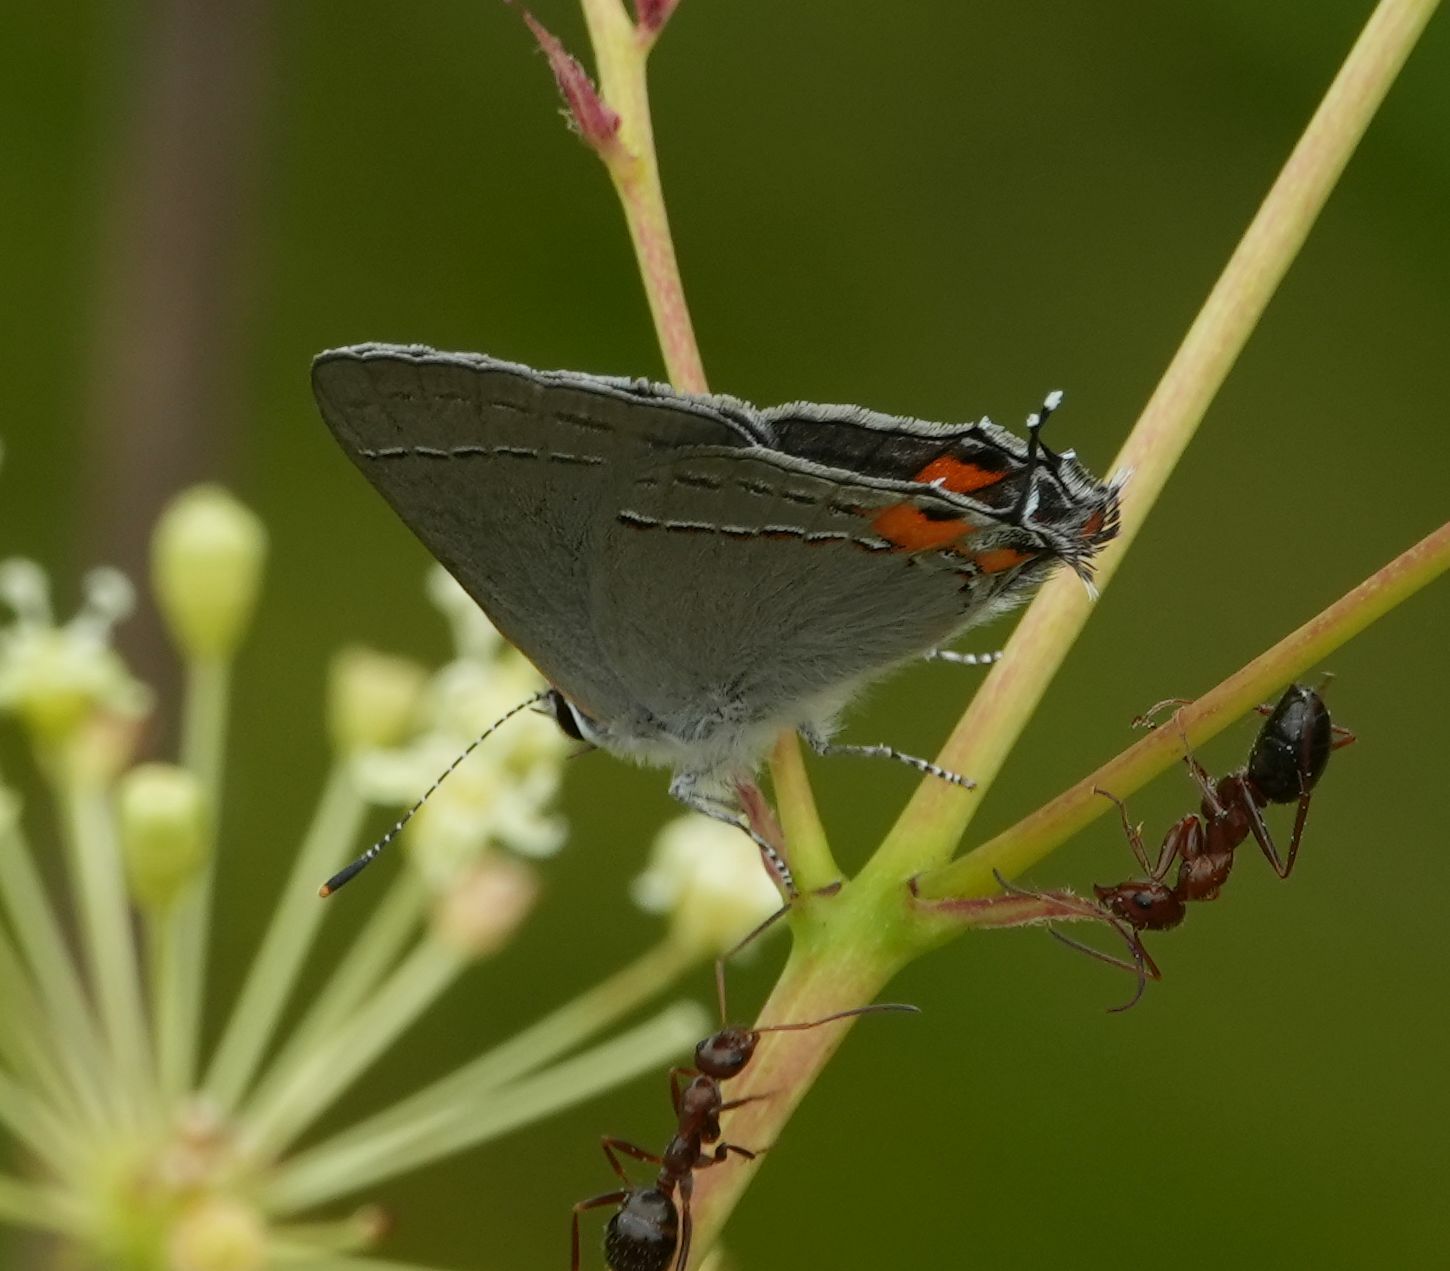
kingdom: Animalia
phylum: Arthropoda
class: Insecta
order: Lepidoptera
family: Lycaenidae
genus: Strymon
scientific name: Strymon melinus
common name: Gray hairstreak
